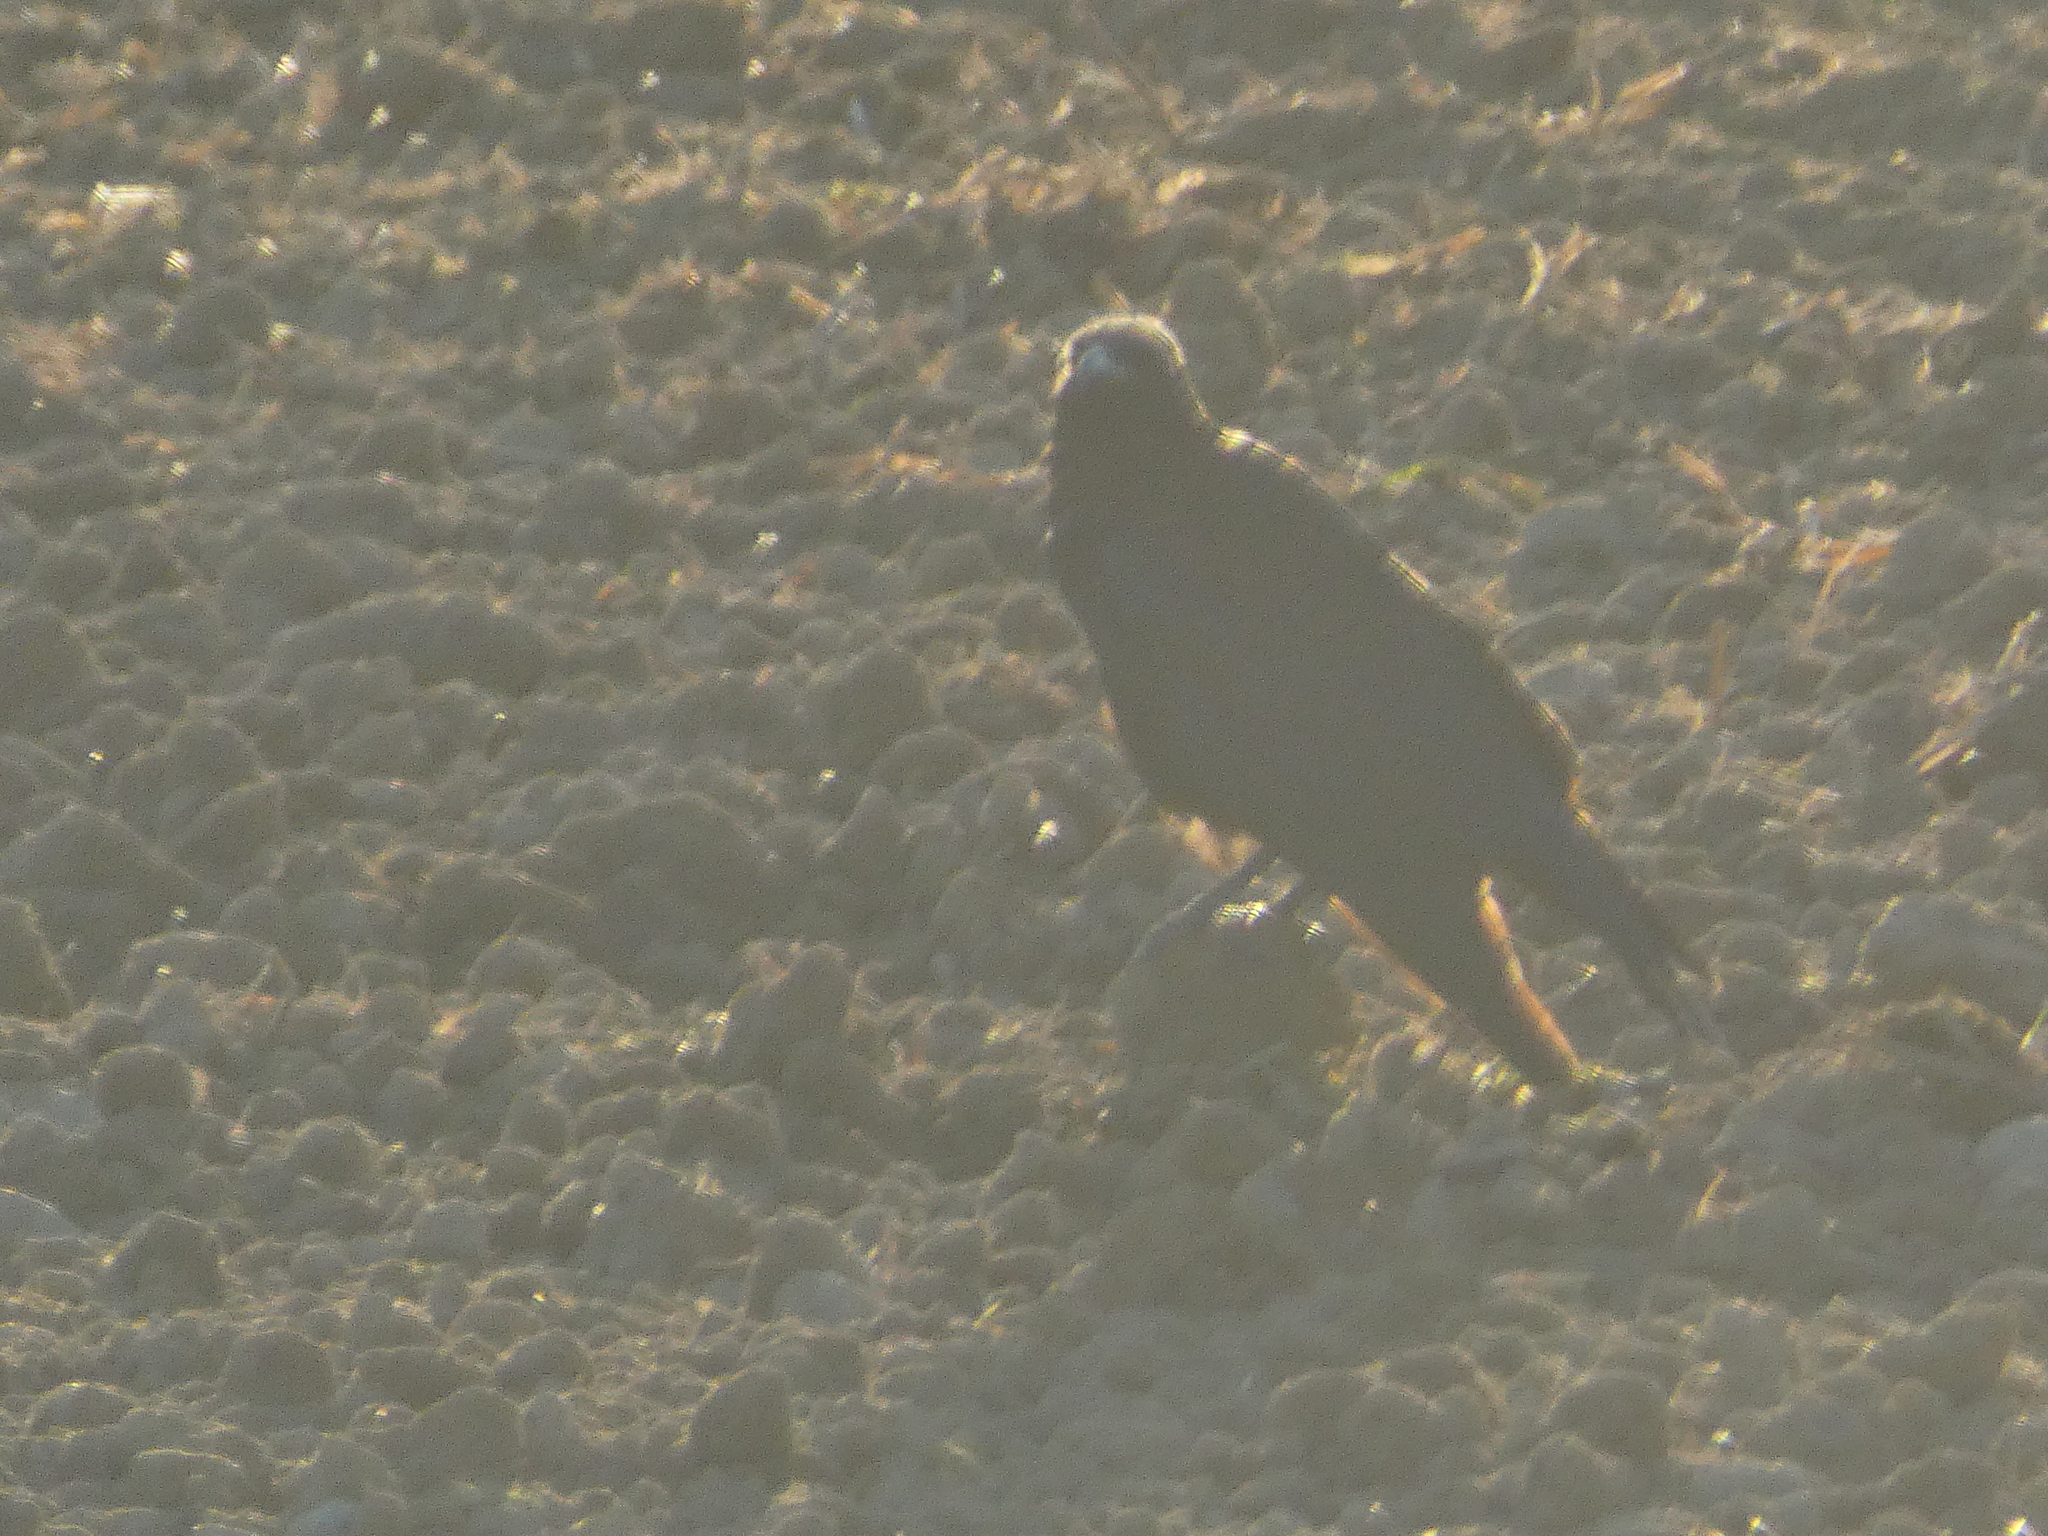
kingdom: Animalia
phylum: Chordata
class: Aves
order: Passeriformes
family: Corvidae
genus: Corvus
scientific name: Corvus corone
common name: Carrion crow
